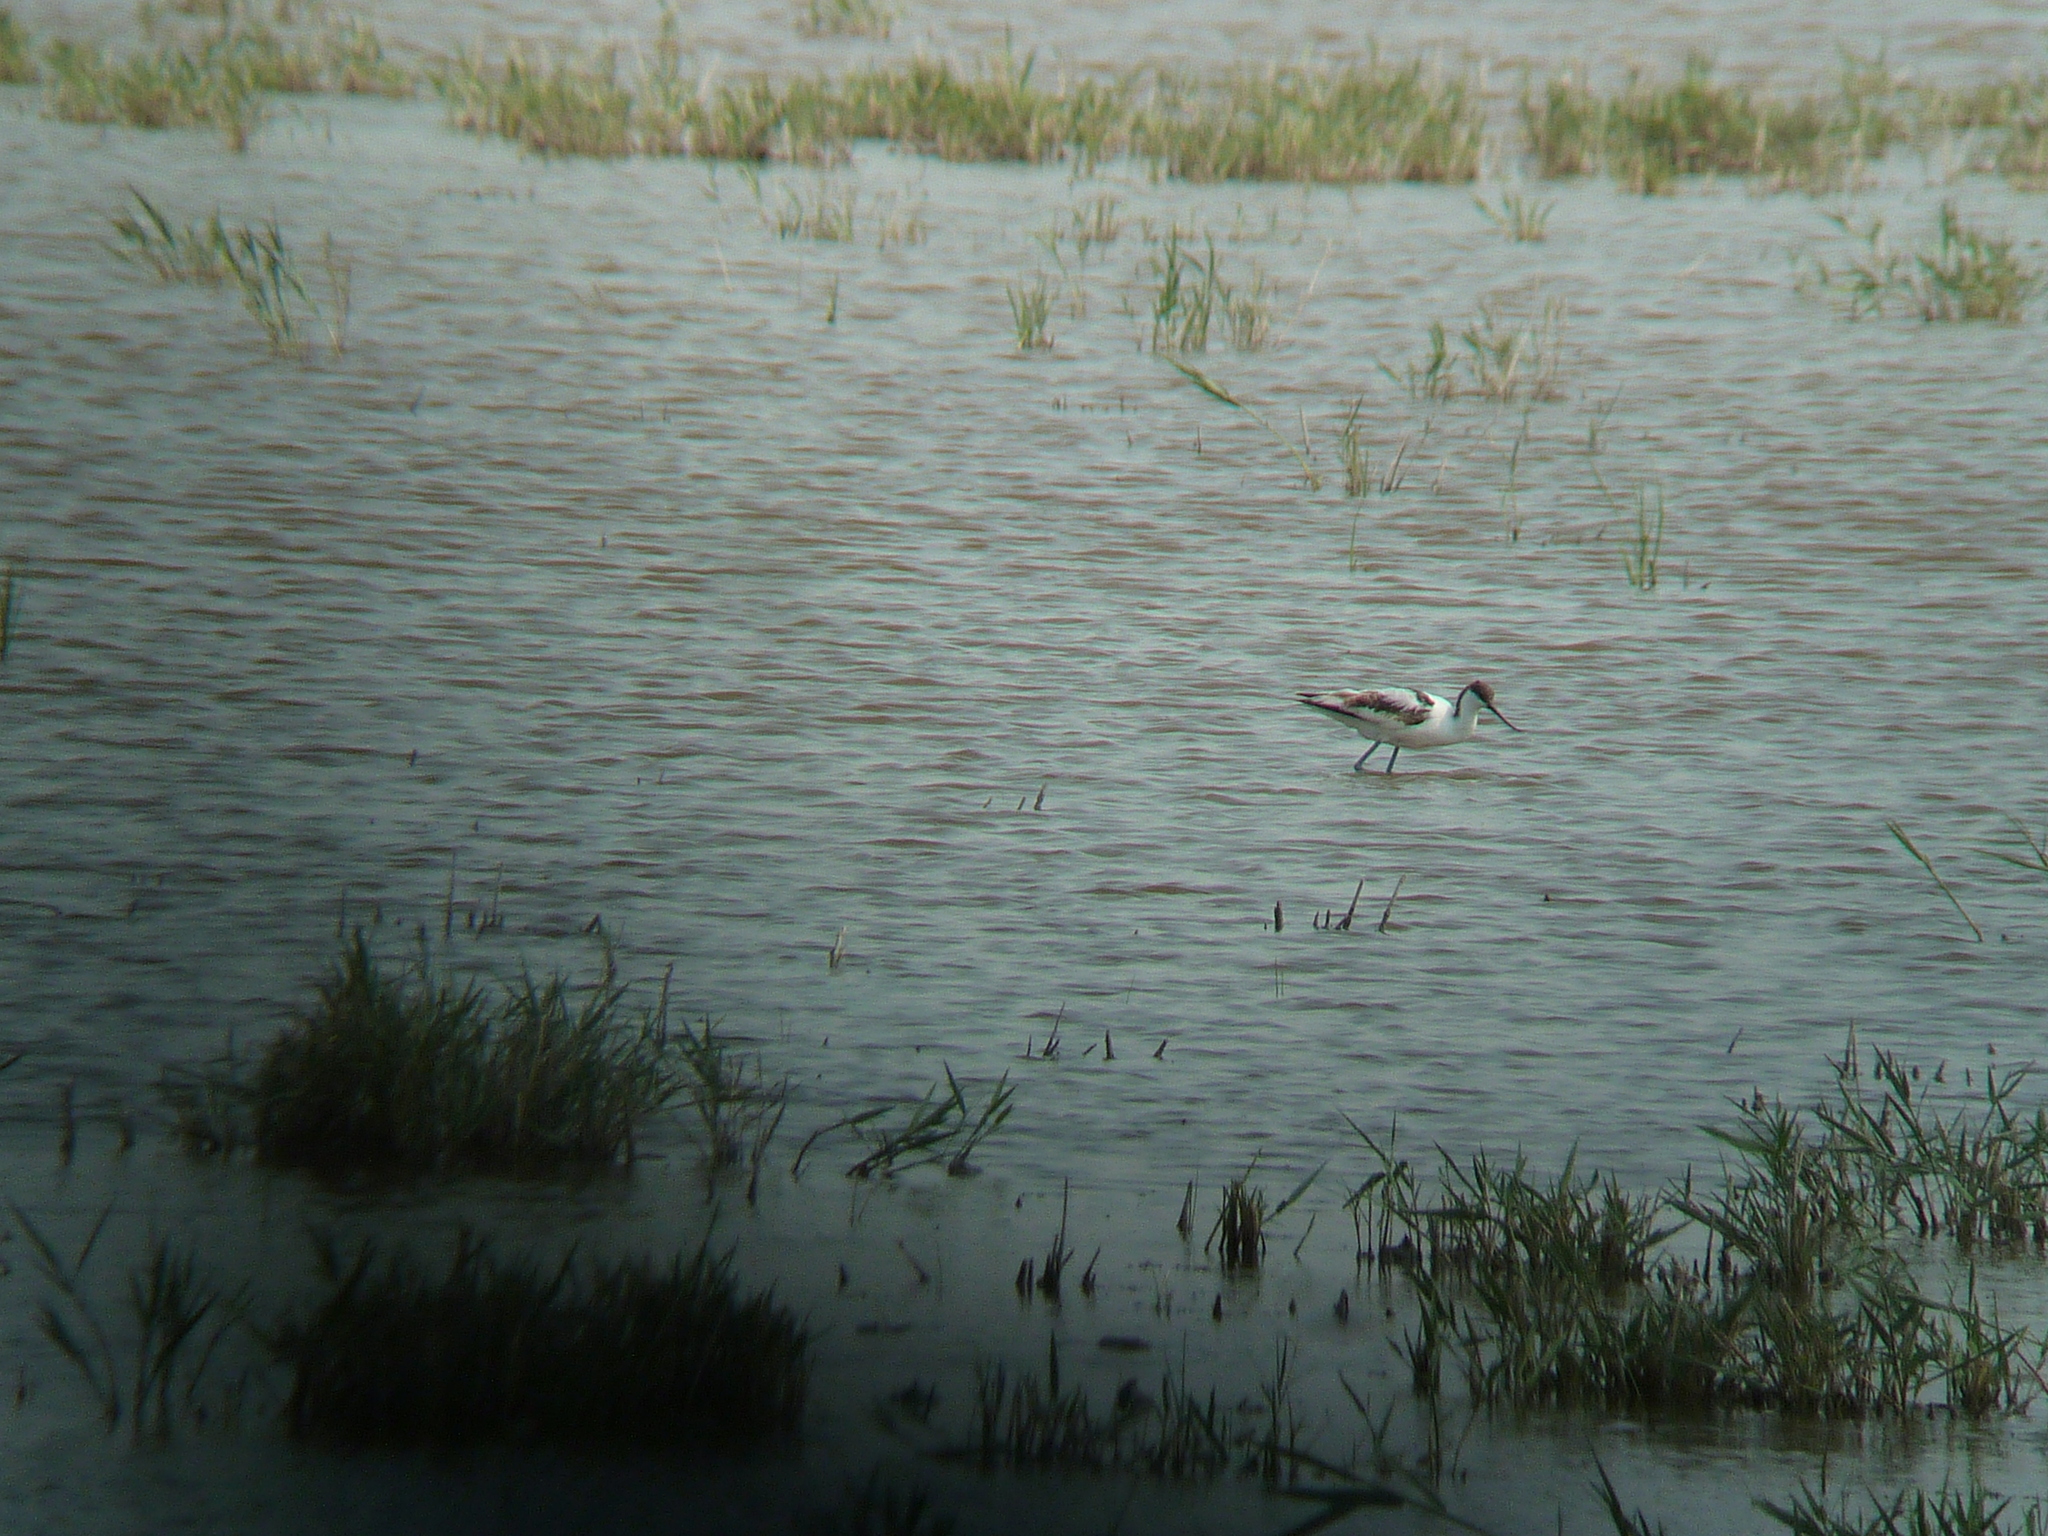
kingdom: Animalia
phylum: Chordata
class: Aves
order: Charadriiformes
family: Recurvirostridae
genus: Recurvirostra
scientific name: Recurvirostra avosetta
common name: Pied avocet
